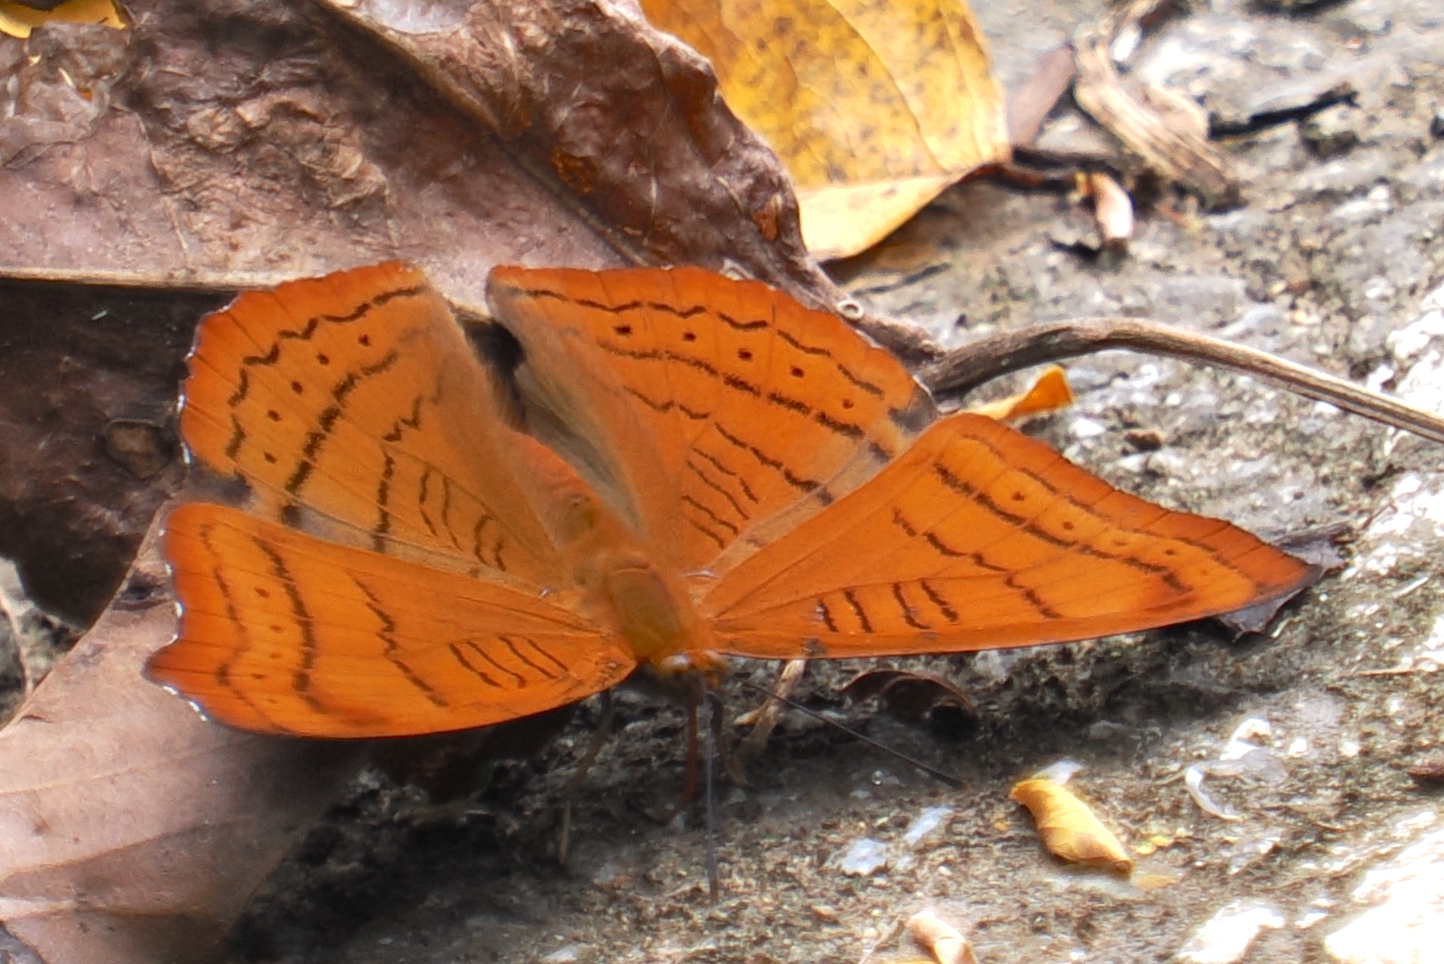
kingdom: Animalia
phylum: Arthropoda
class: Insecta
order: Lepidoptera
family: Nymphalidae
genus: Pseudergolis
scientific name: Pseudergolis wedah
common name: Tabby
